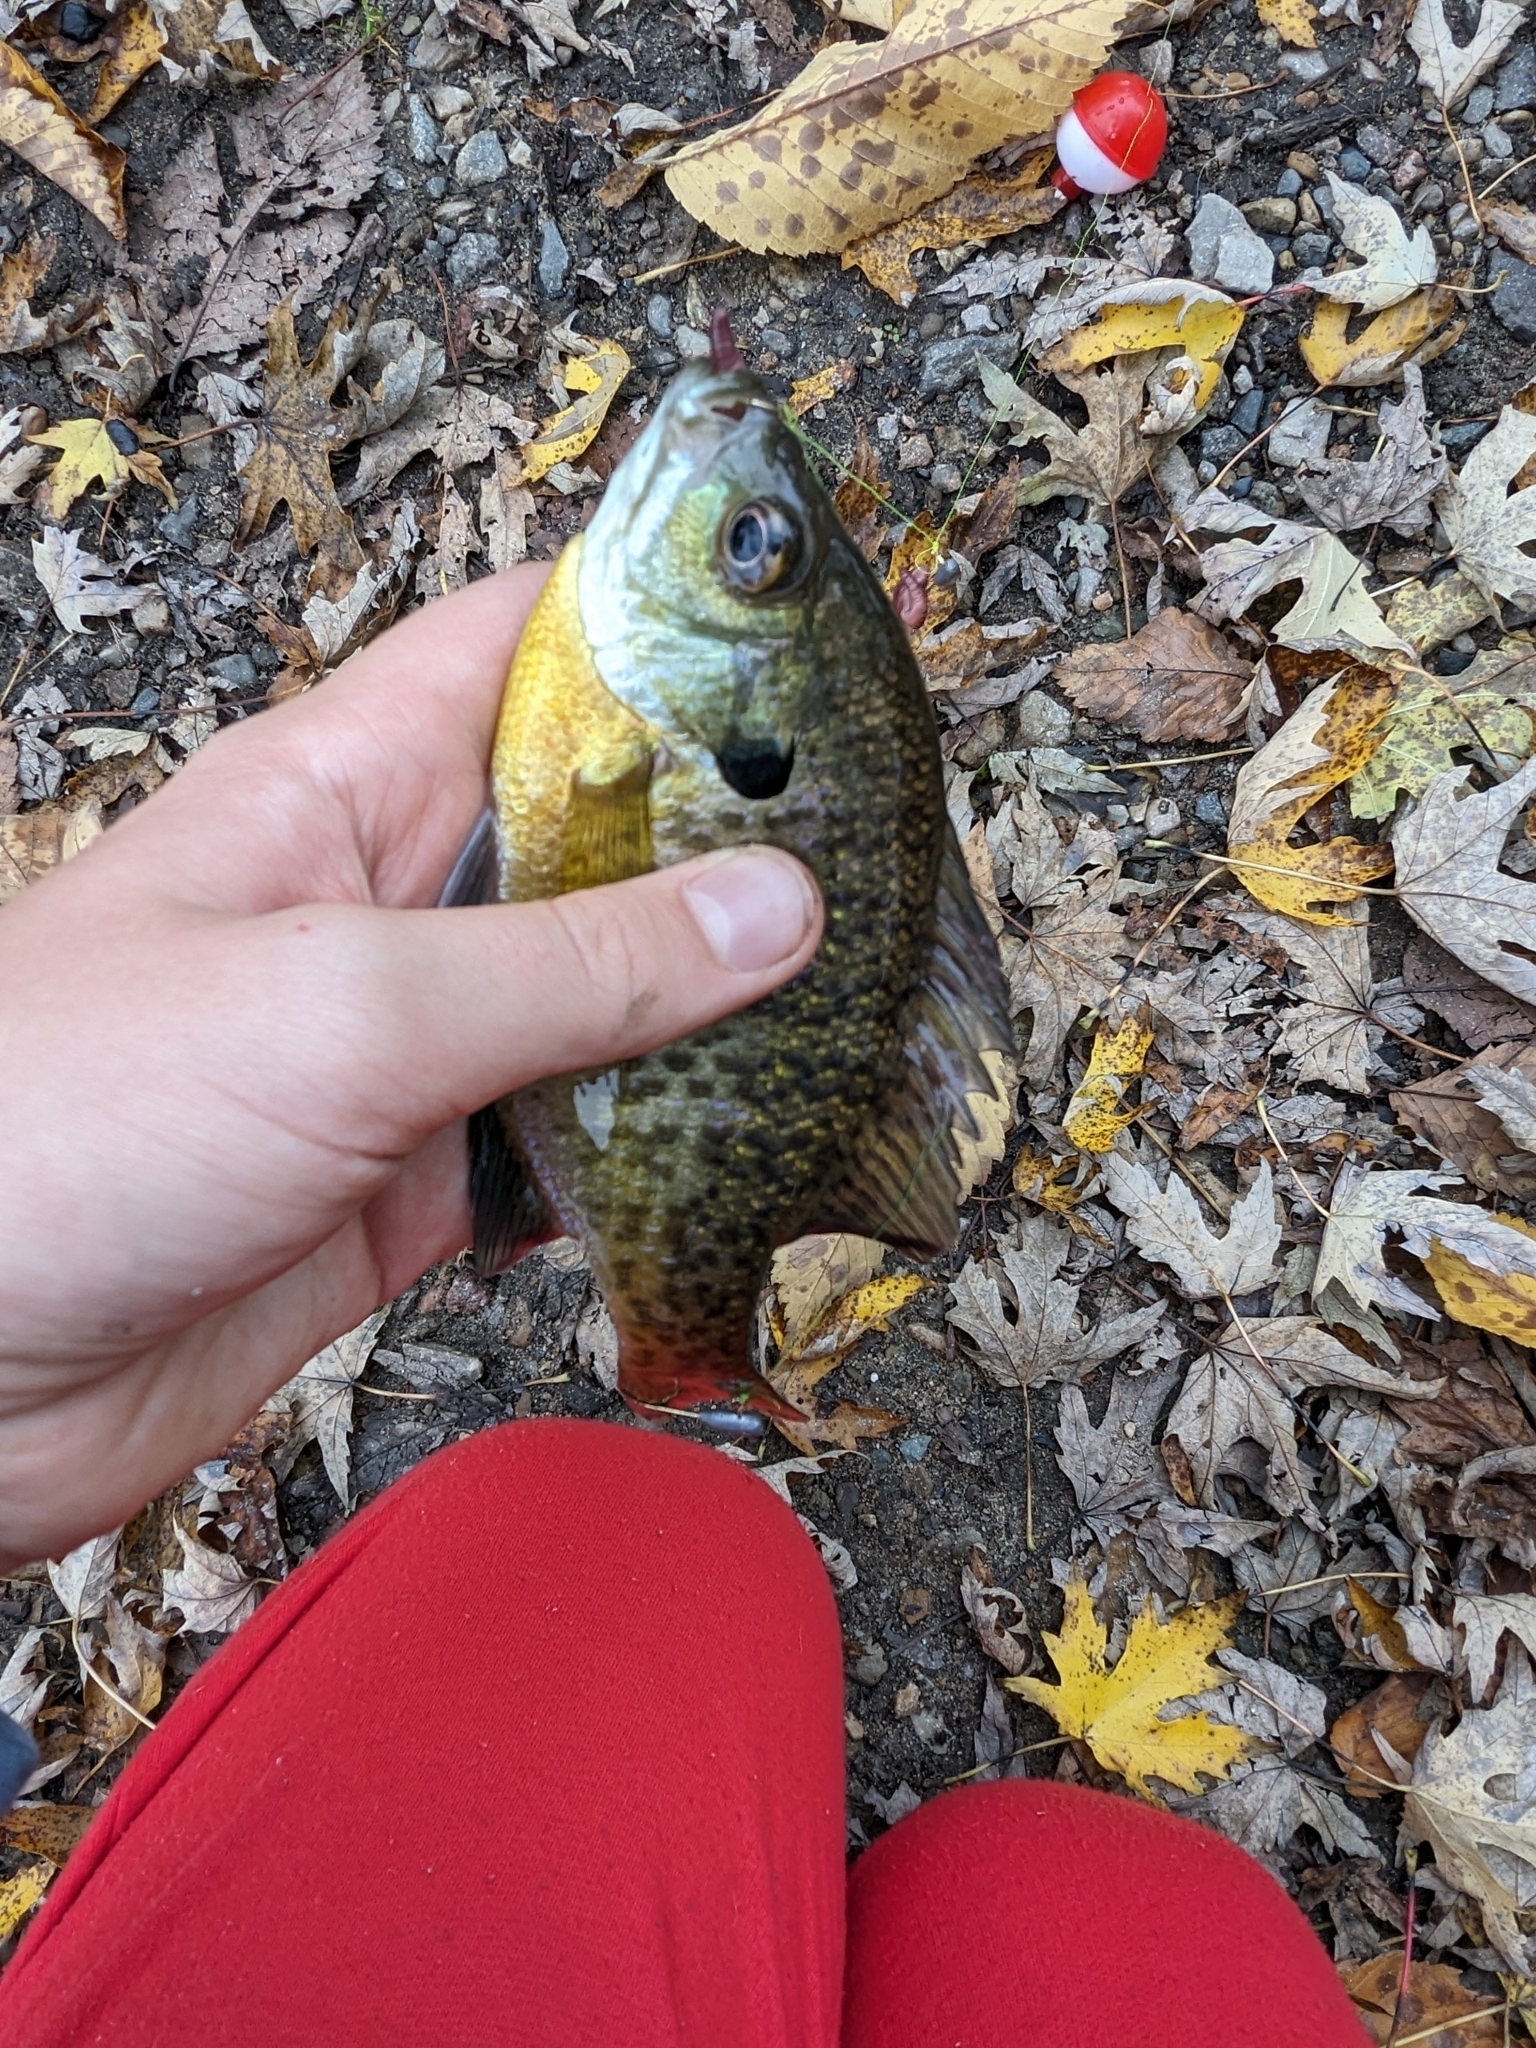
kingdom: Animalia
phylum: Chordata
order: Perciformes
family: Centrarchidae
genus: Lepomis
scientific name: Lepomis macrochirus
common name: Bluegill
